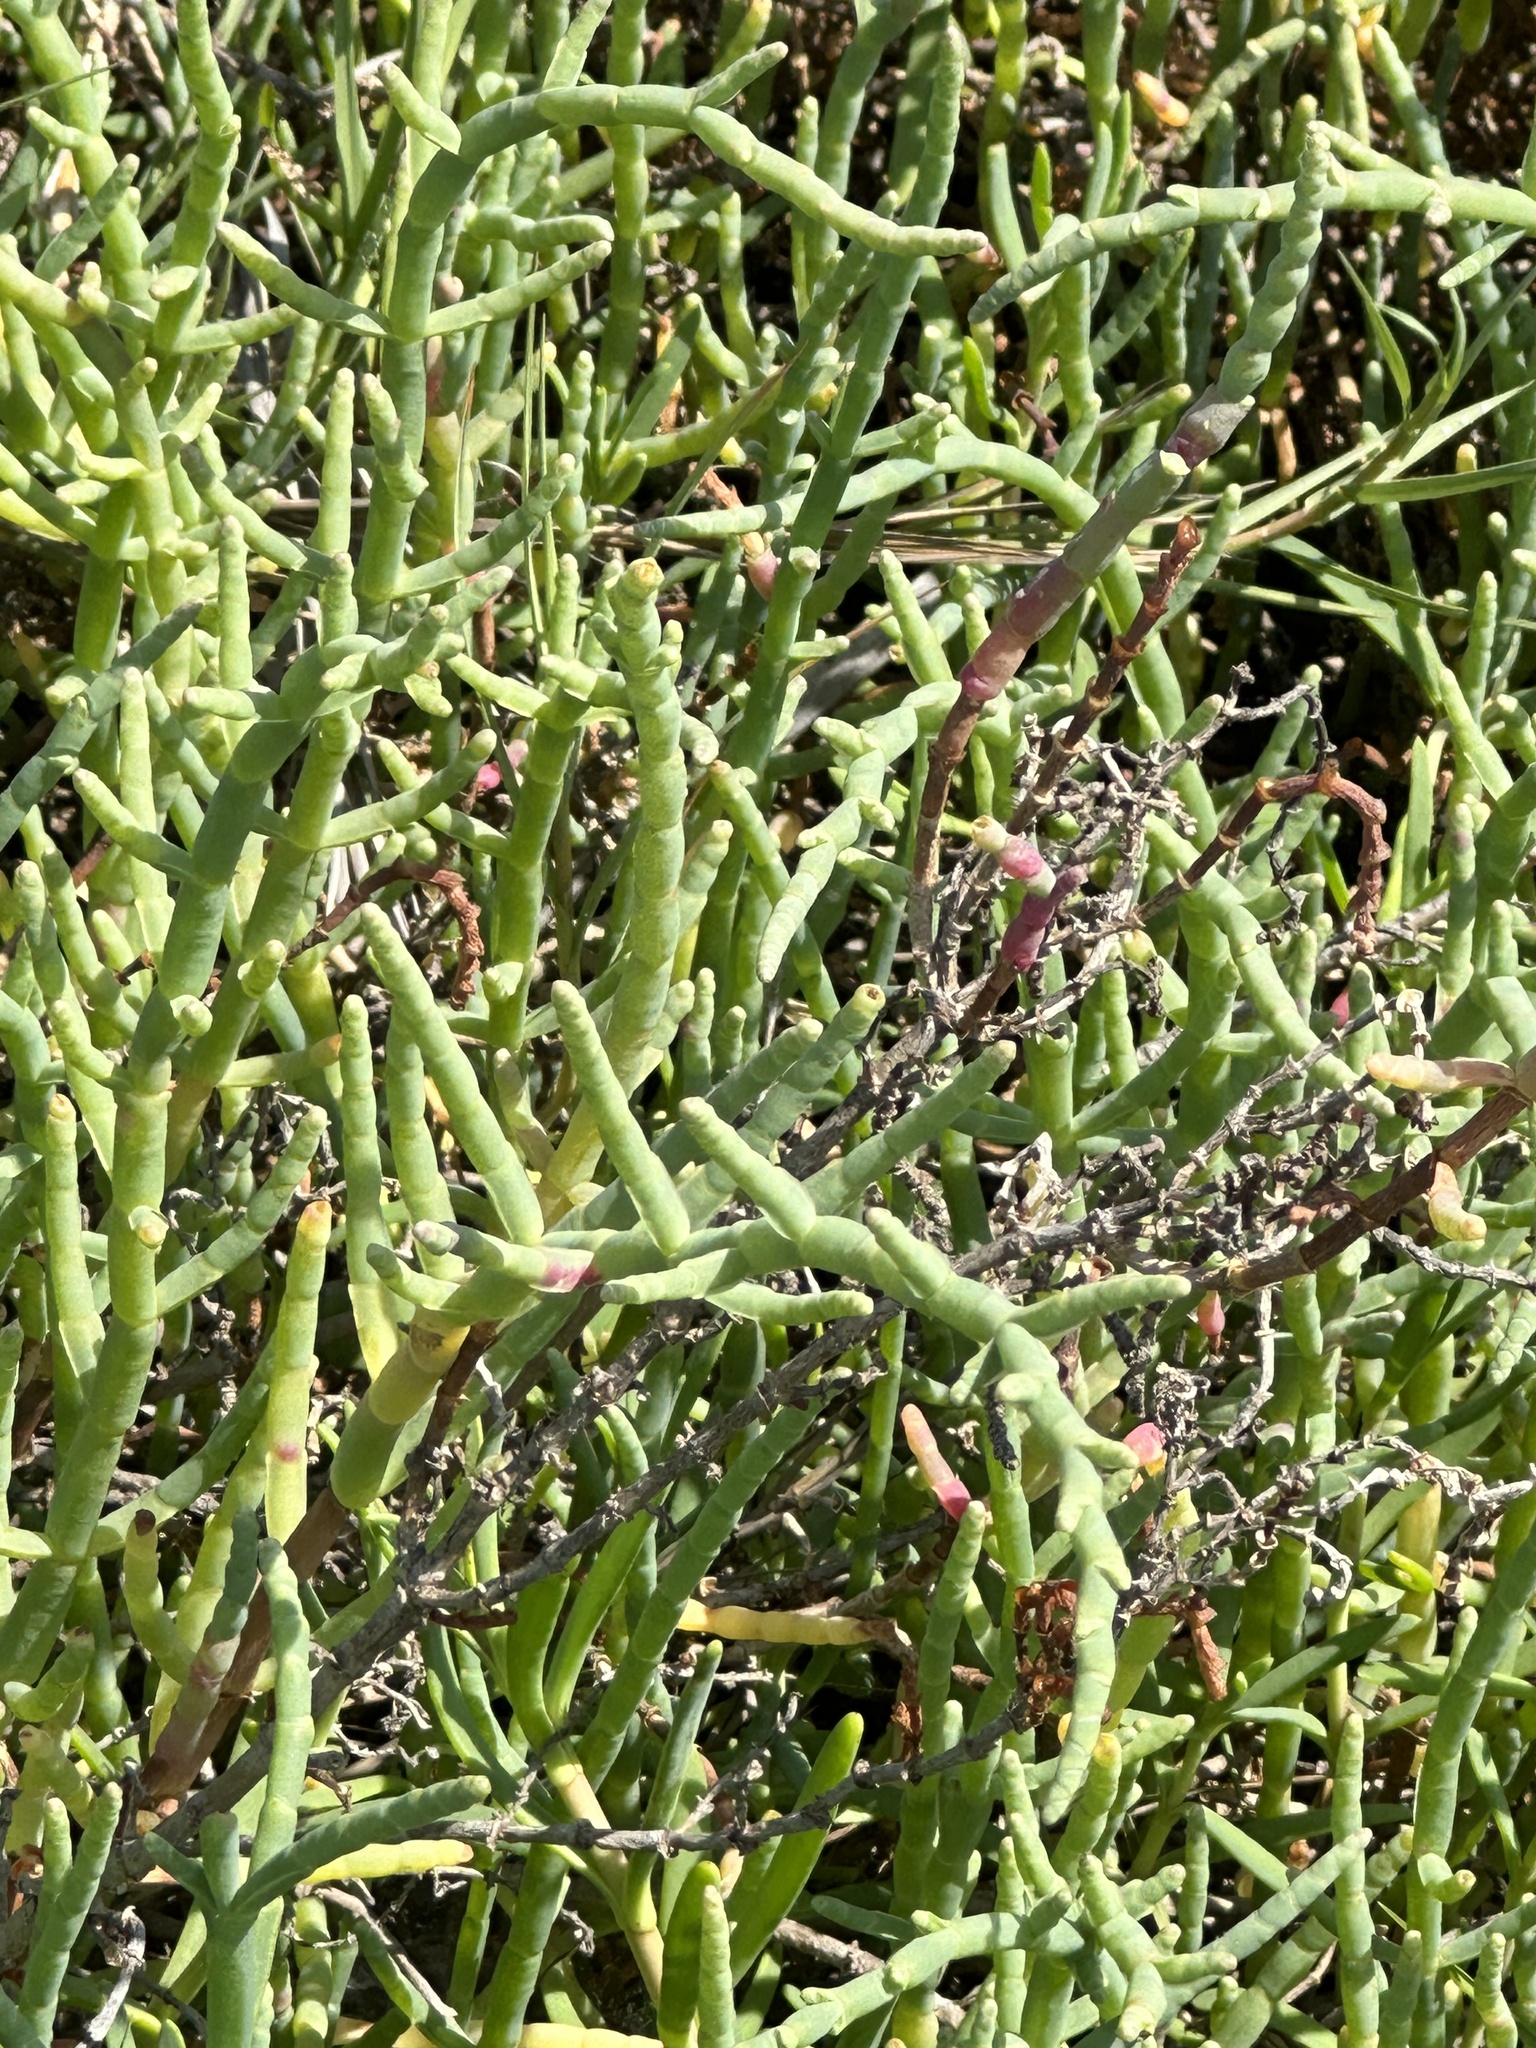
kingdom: Plantae
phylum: Tracheophyta
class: Magnoliopsida
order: Caryophyllales
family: Amaranthaceae
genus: Salicornia
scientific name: Salicornia pacifica
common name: Pacific glasswort
